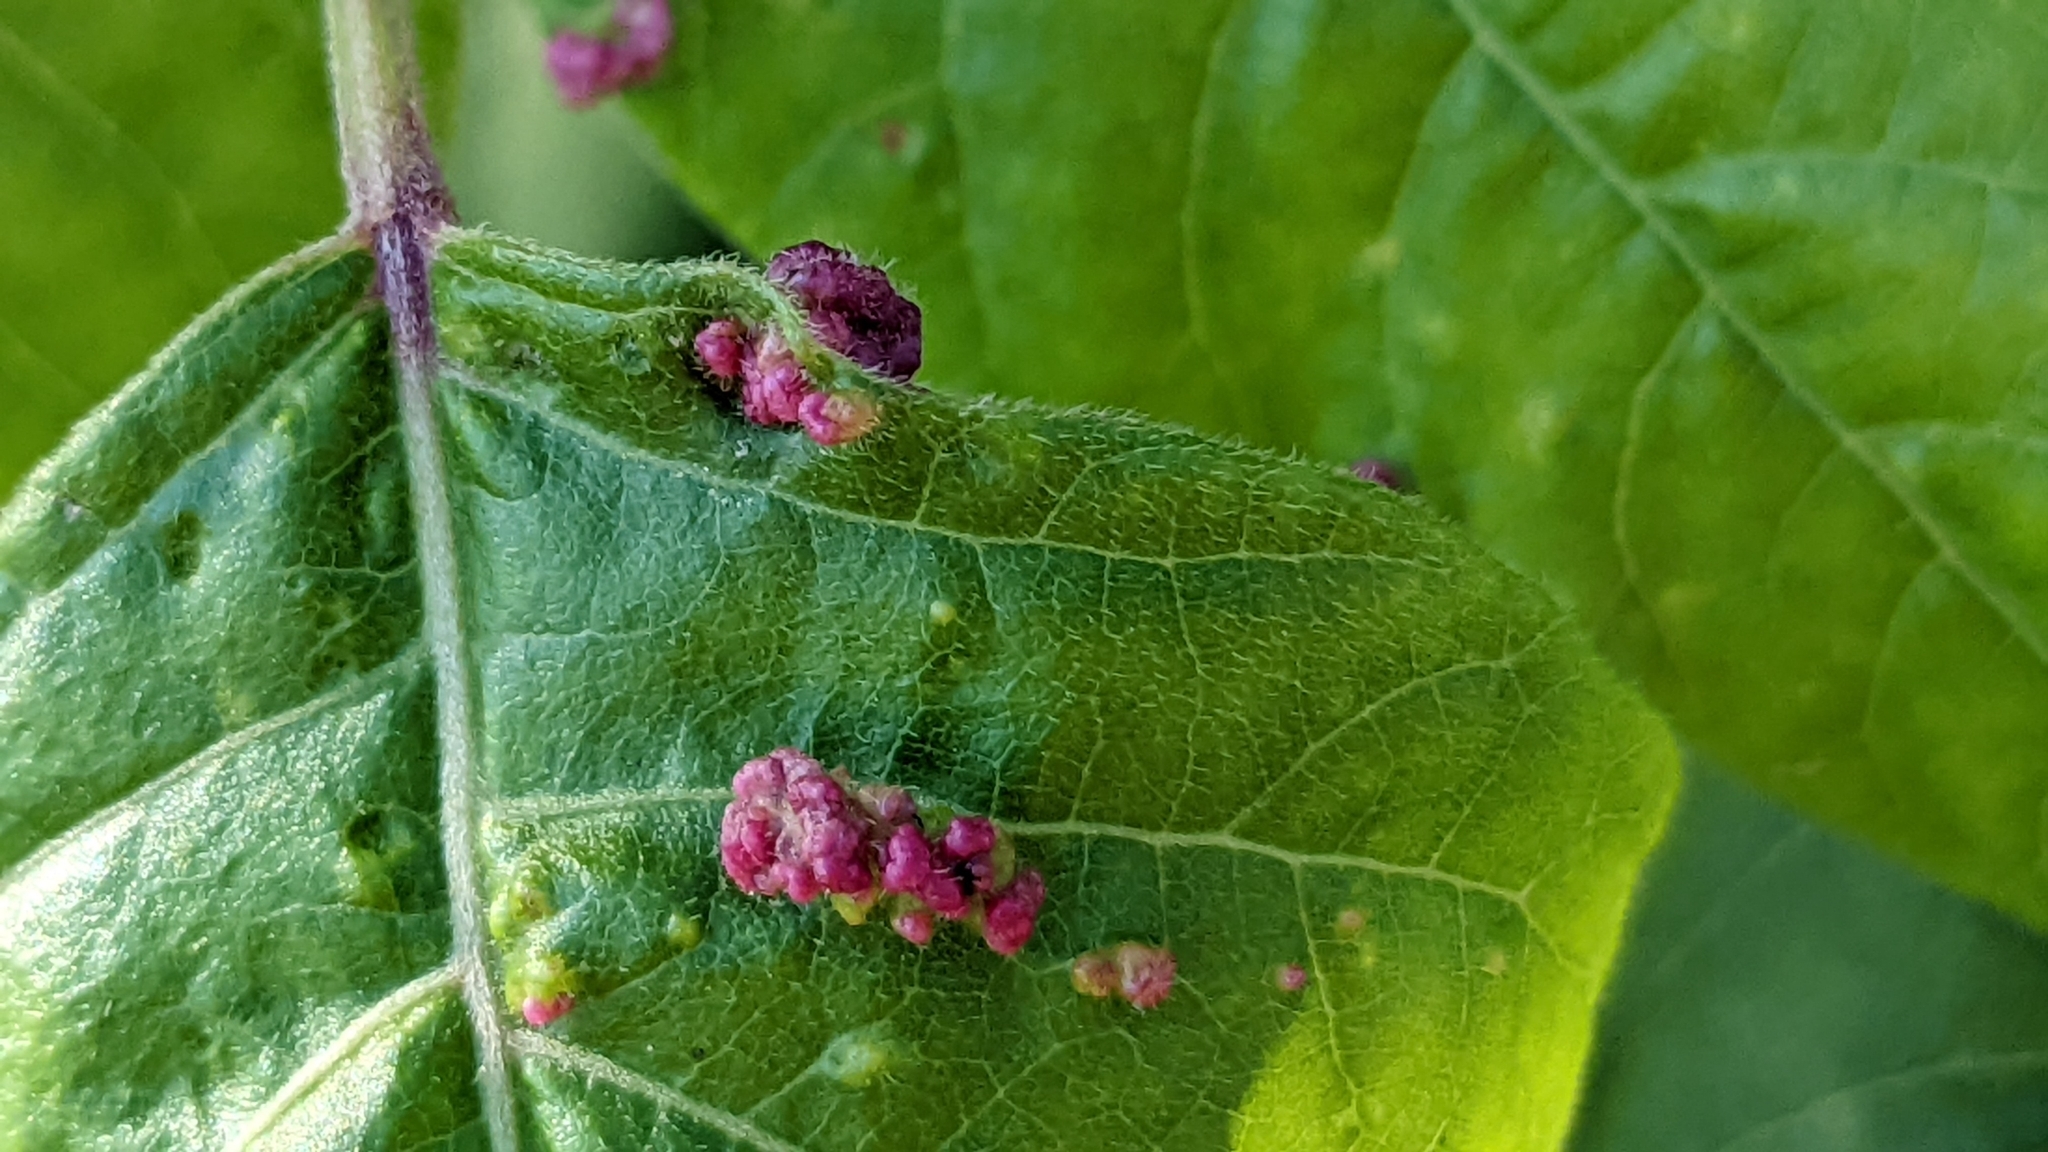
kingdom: Animalia
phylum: Arthropoda
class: Arachnida
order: Trombidiformes
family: Eriophyidae
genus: Aculops
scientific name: Aculops
